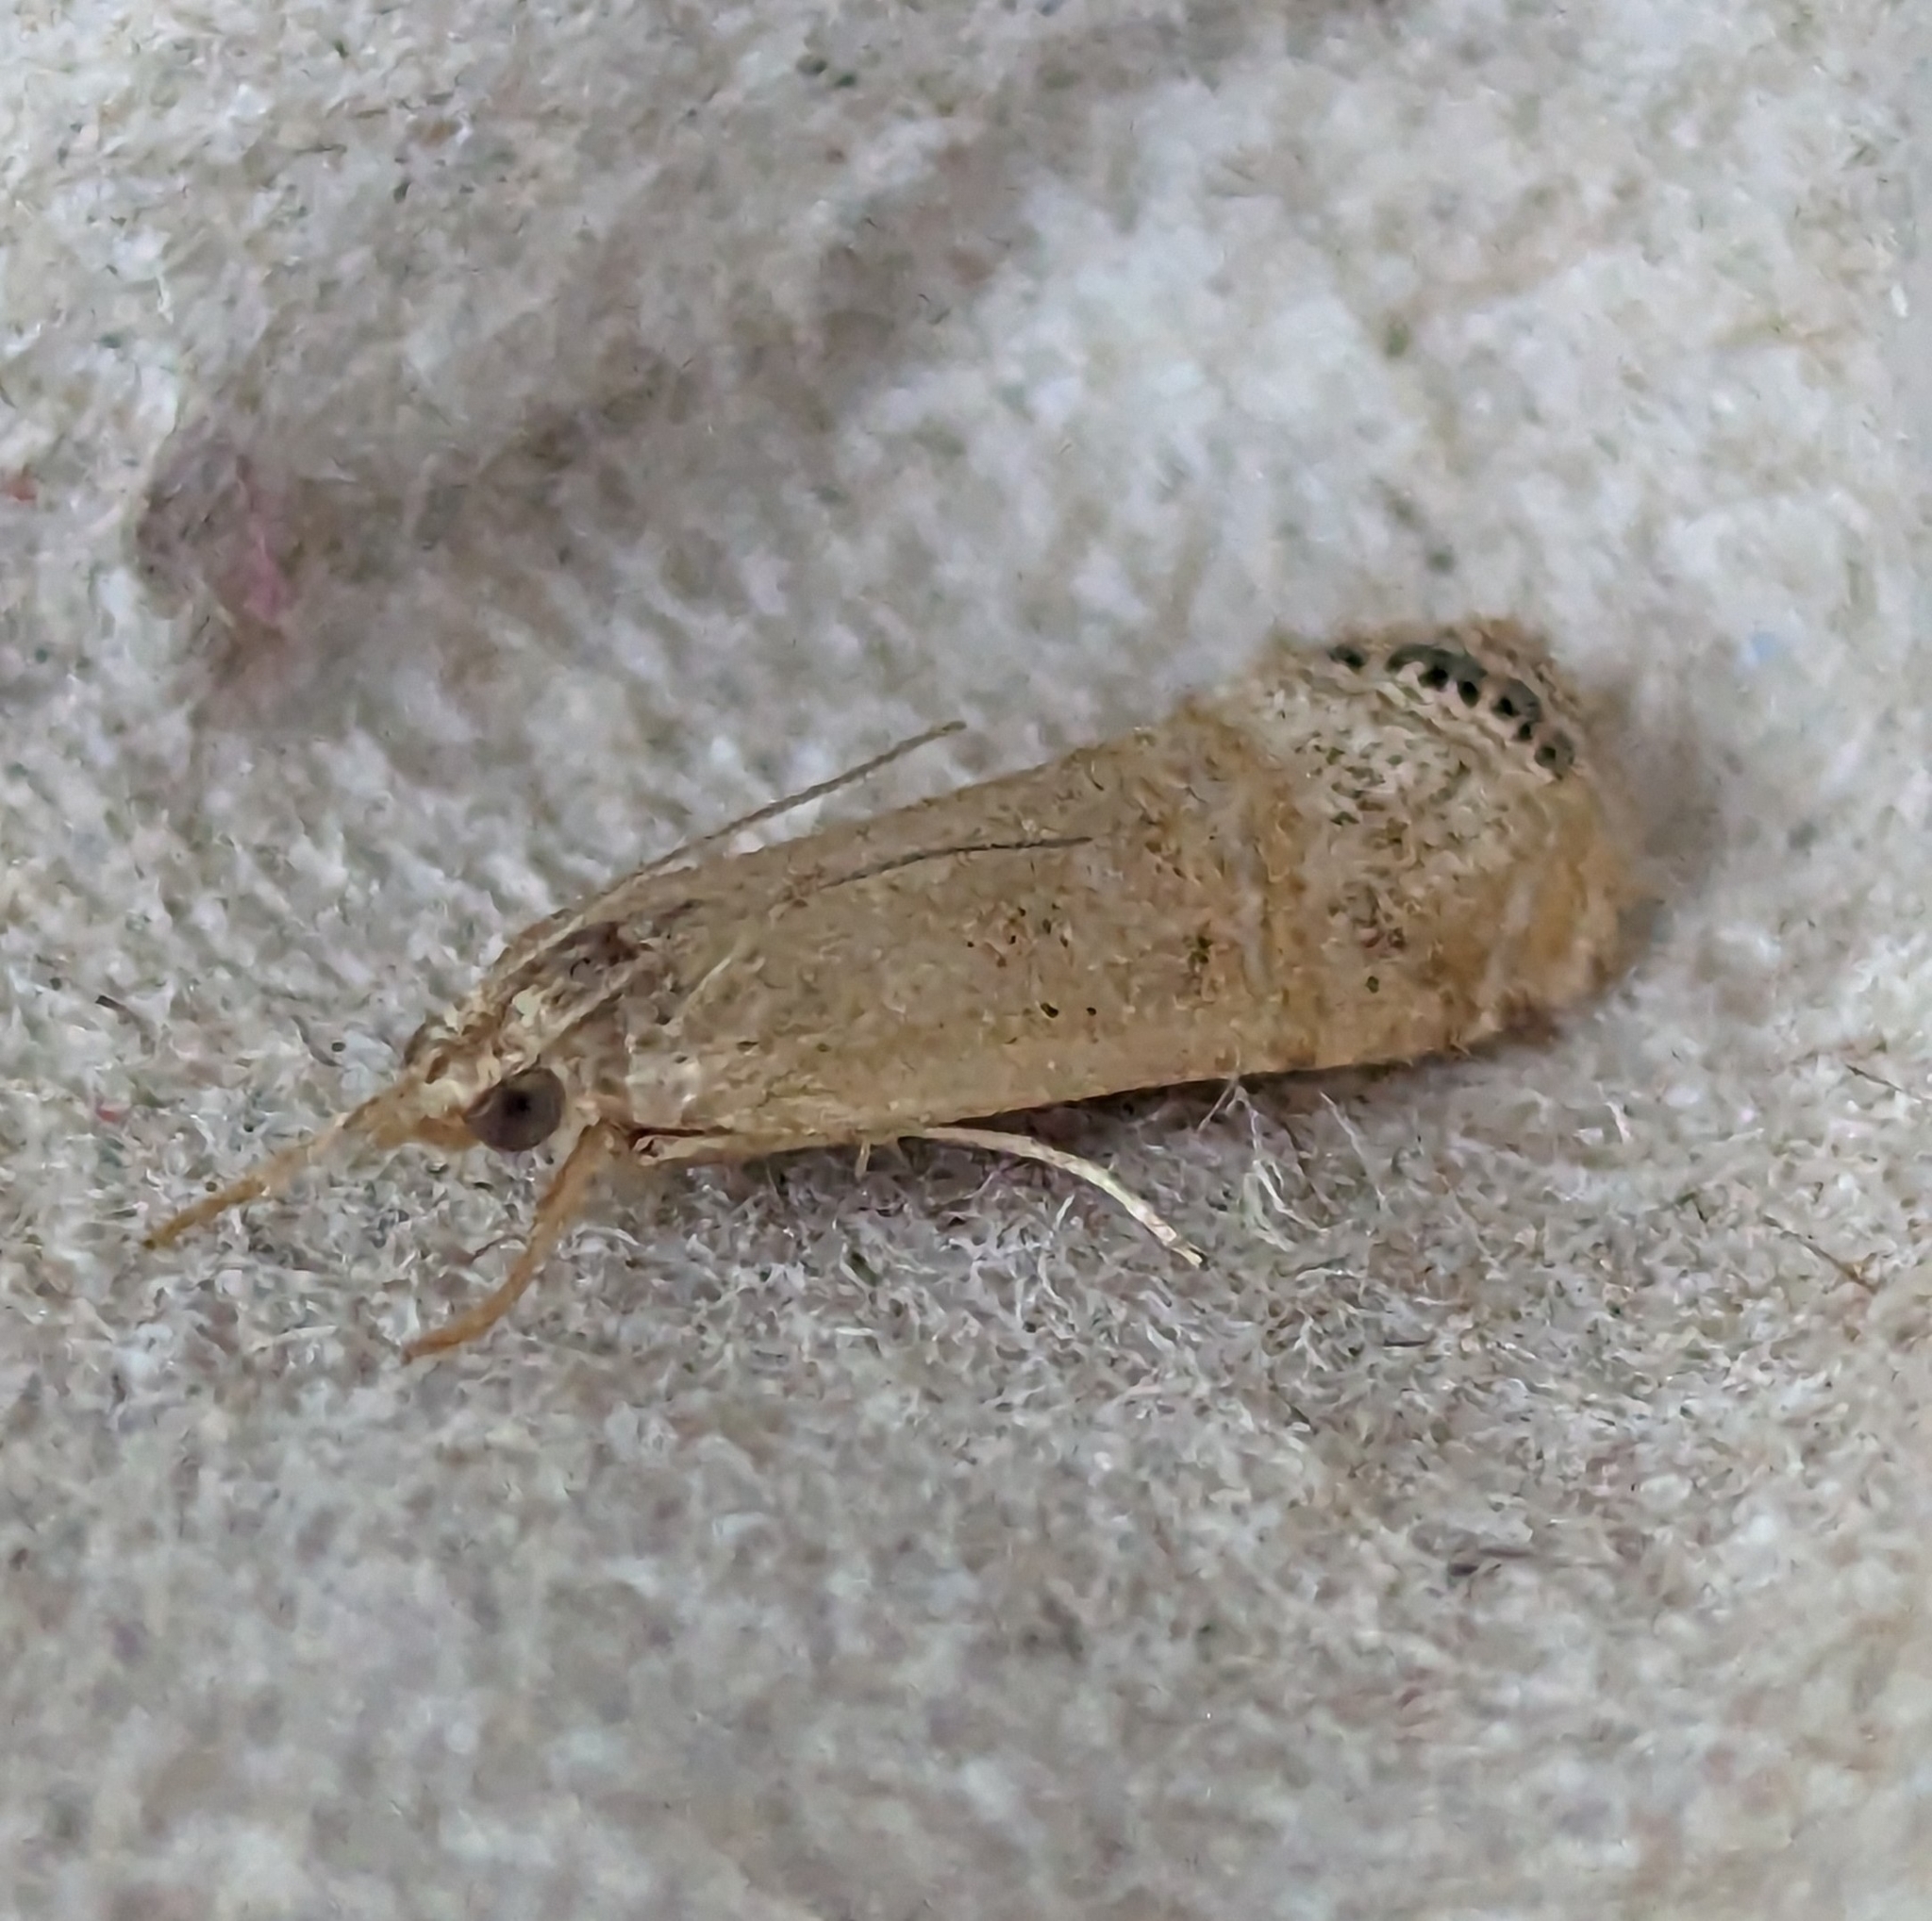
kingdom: Animalia
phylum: Arthropoda
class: Insecta
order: Lepidoptera
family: Crambidae
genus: Euchromius
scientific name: Euchromius ocellea
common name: Necklace veneer moth
